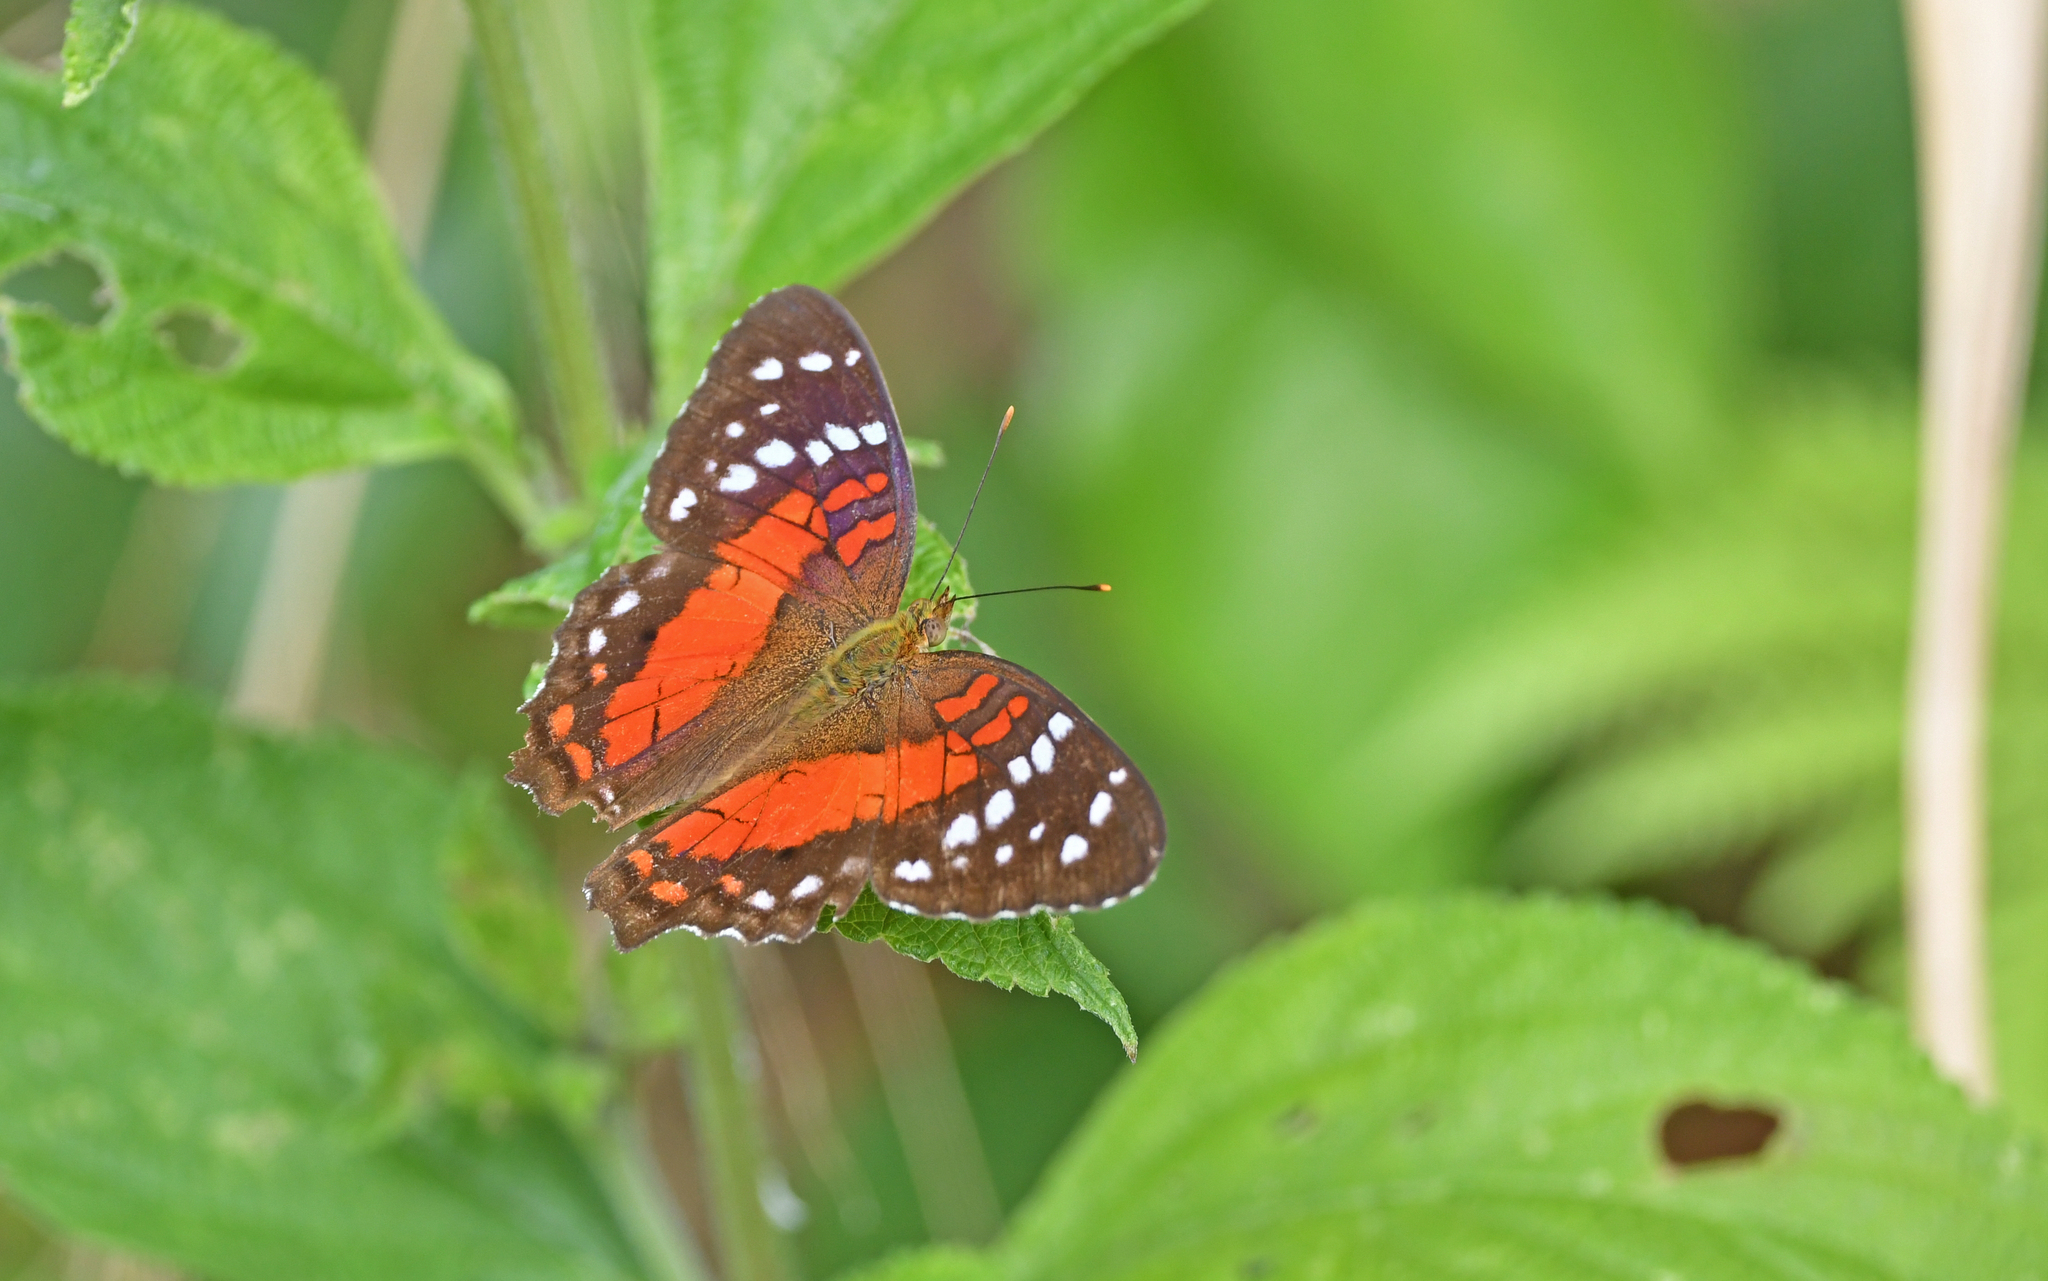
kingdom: Animalia
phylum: Arthropoda
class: Insecta
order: Lepidoptera
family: Nymphalidae
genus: Anartia
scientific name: Anartia amathea
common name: Red peacock
